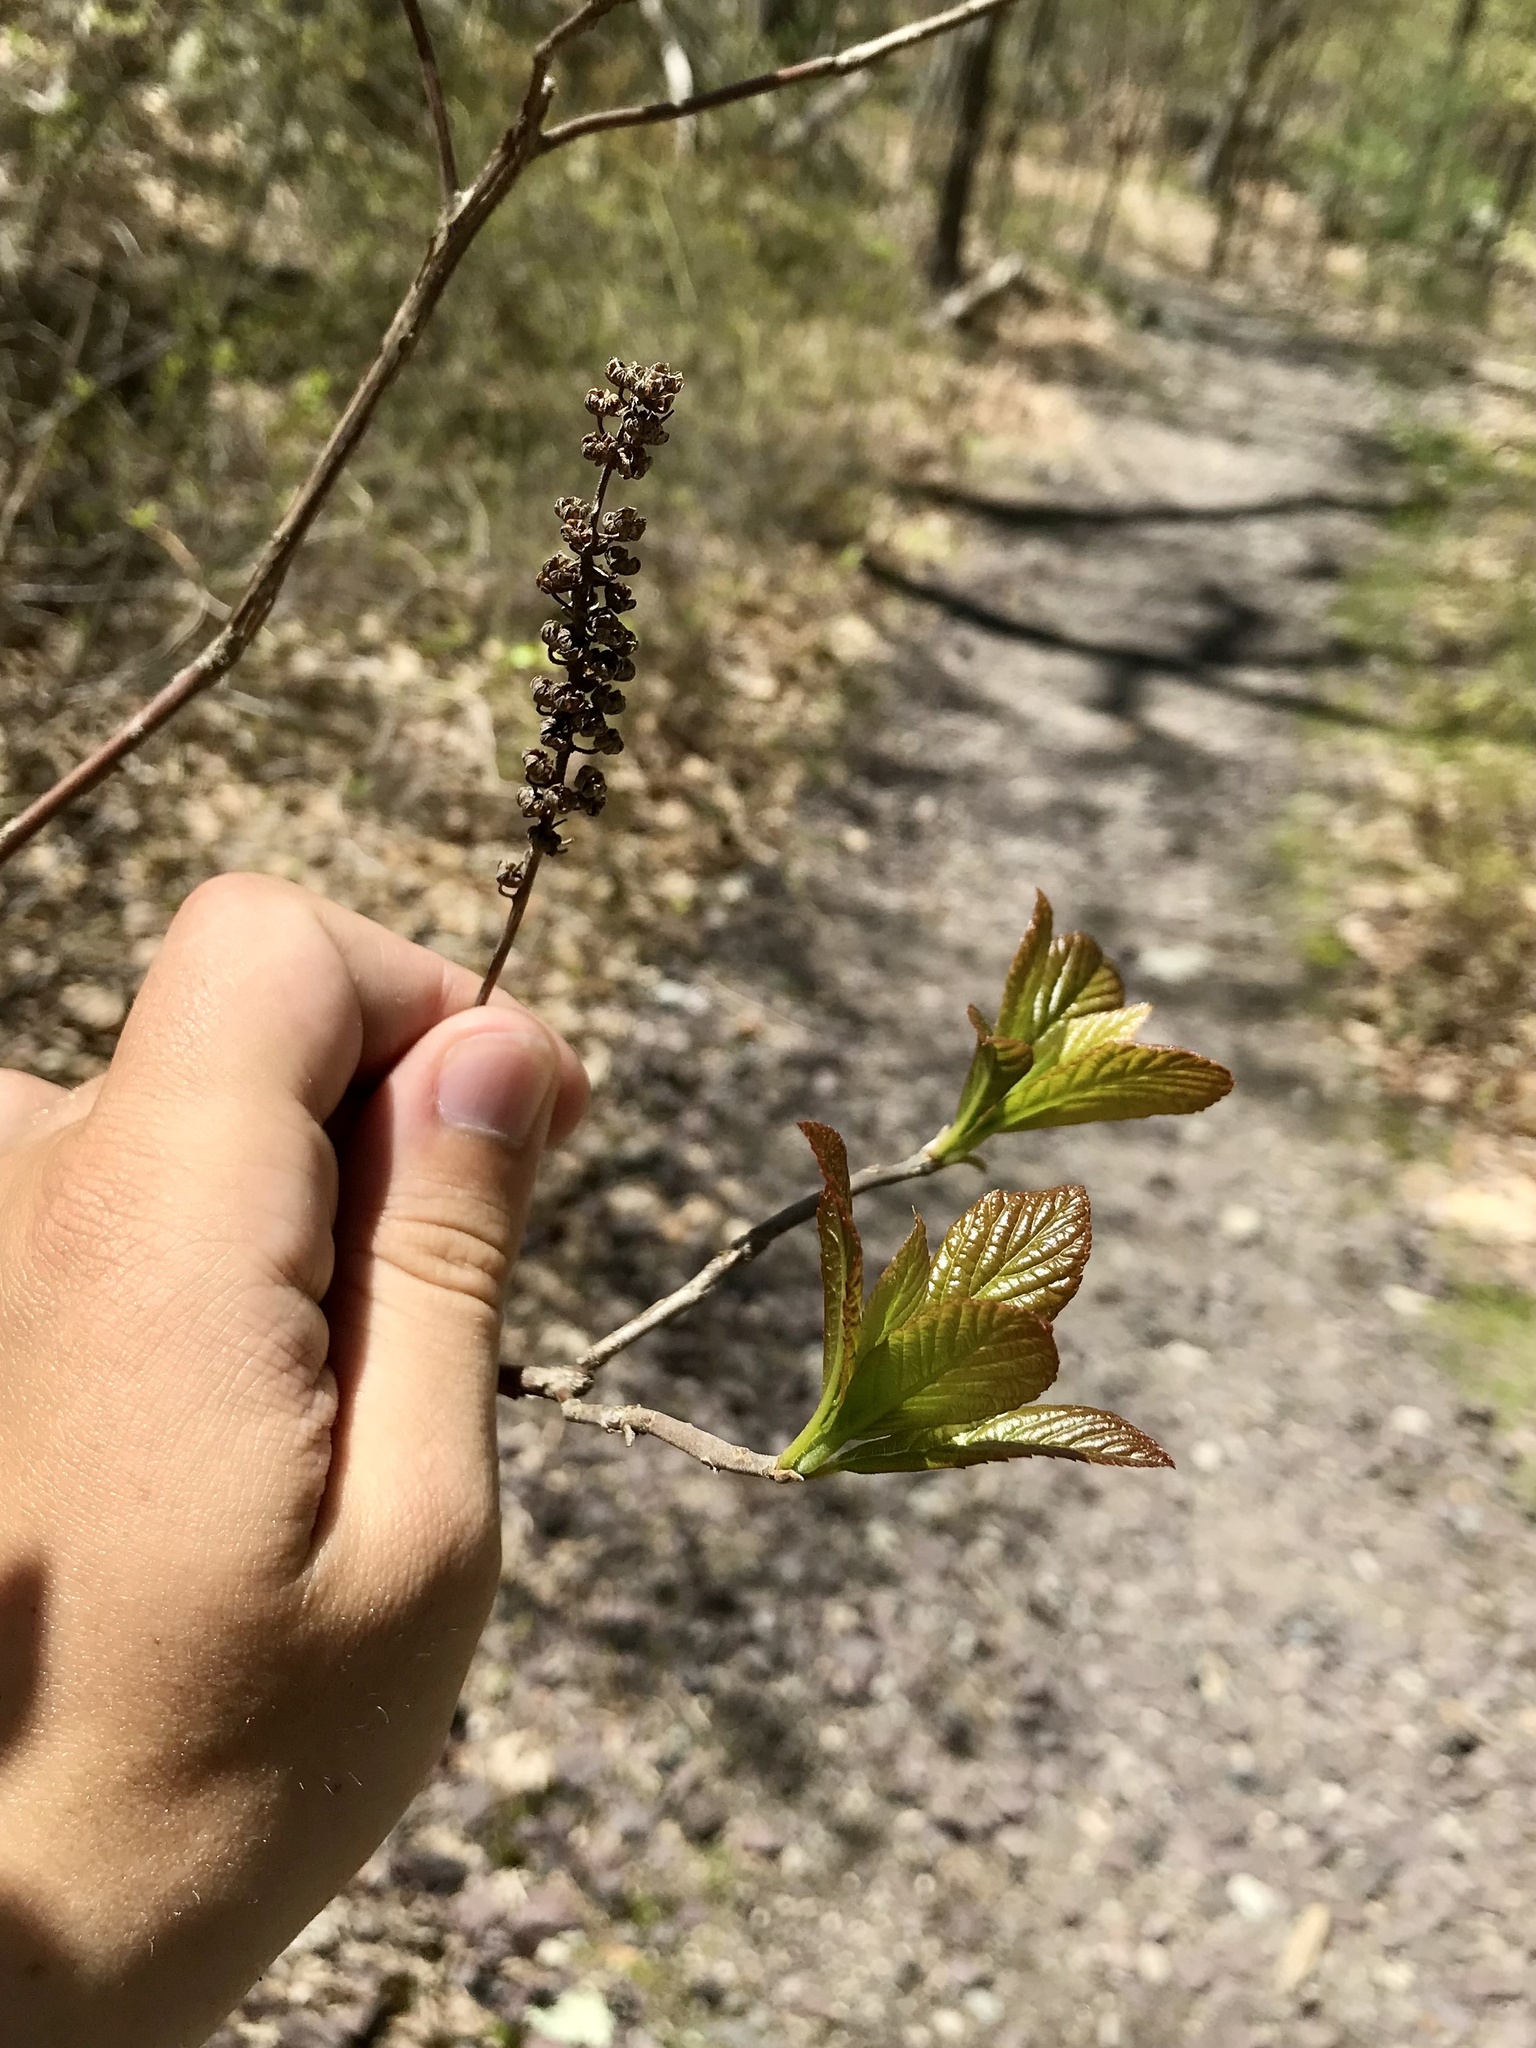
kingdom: Plantae
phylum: Tracheophyta
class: Magnoliopsida
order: Ericales
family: Clethraceae
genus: Clethra
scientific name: Clethra alnifolia
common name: Sweet pepperbush
